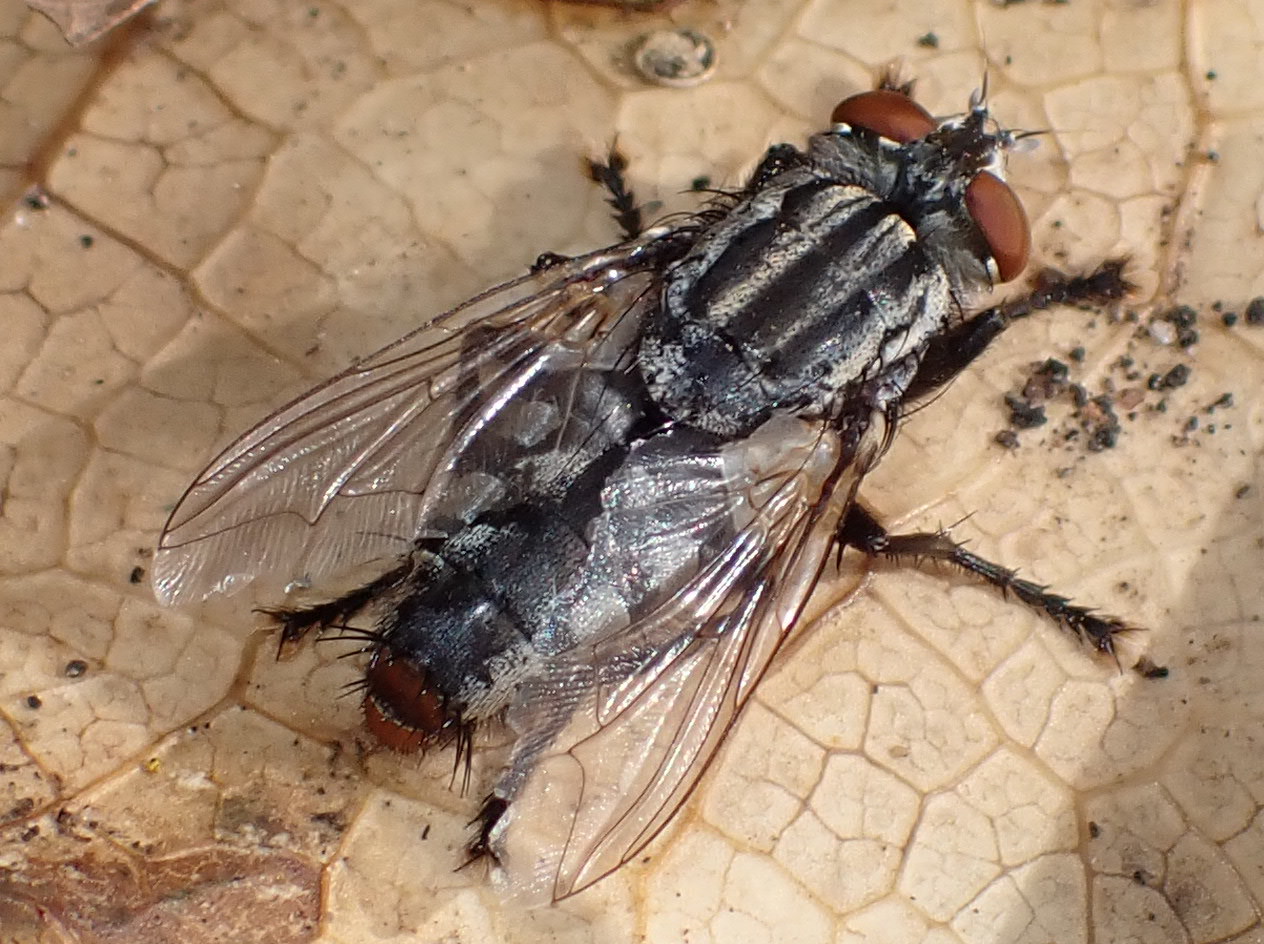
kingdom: Animalia
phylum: Arthropoda
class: Insecta
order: Diptera
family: Sarcophagidae
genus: Sarcophaga
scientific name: Sarcophaga crassipalpis
